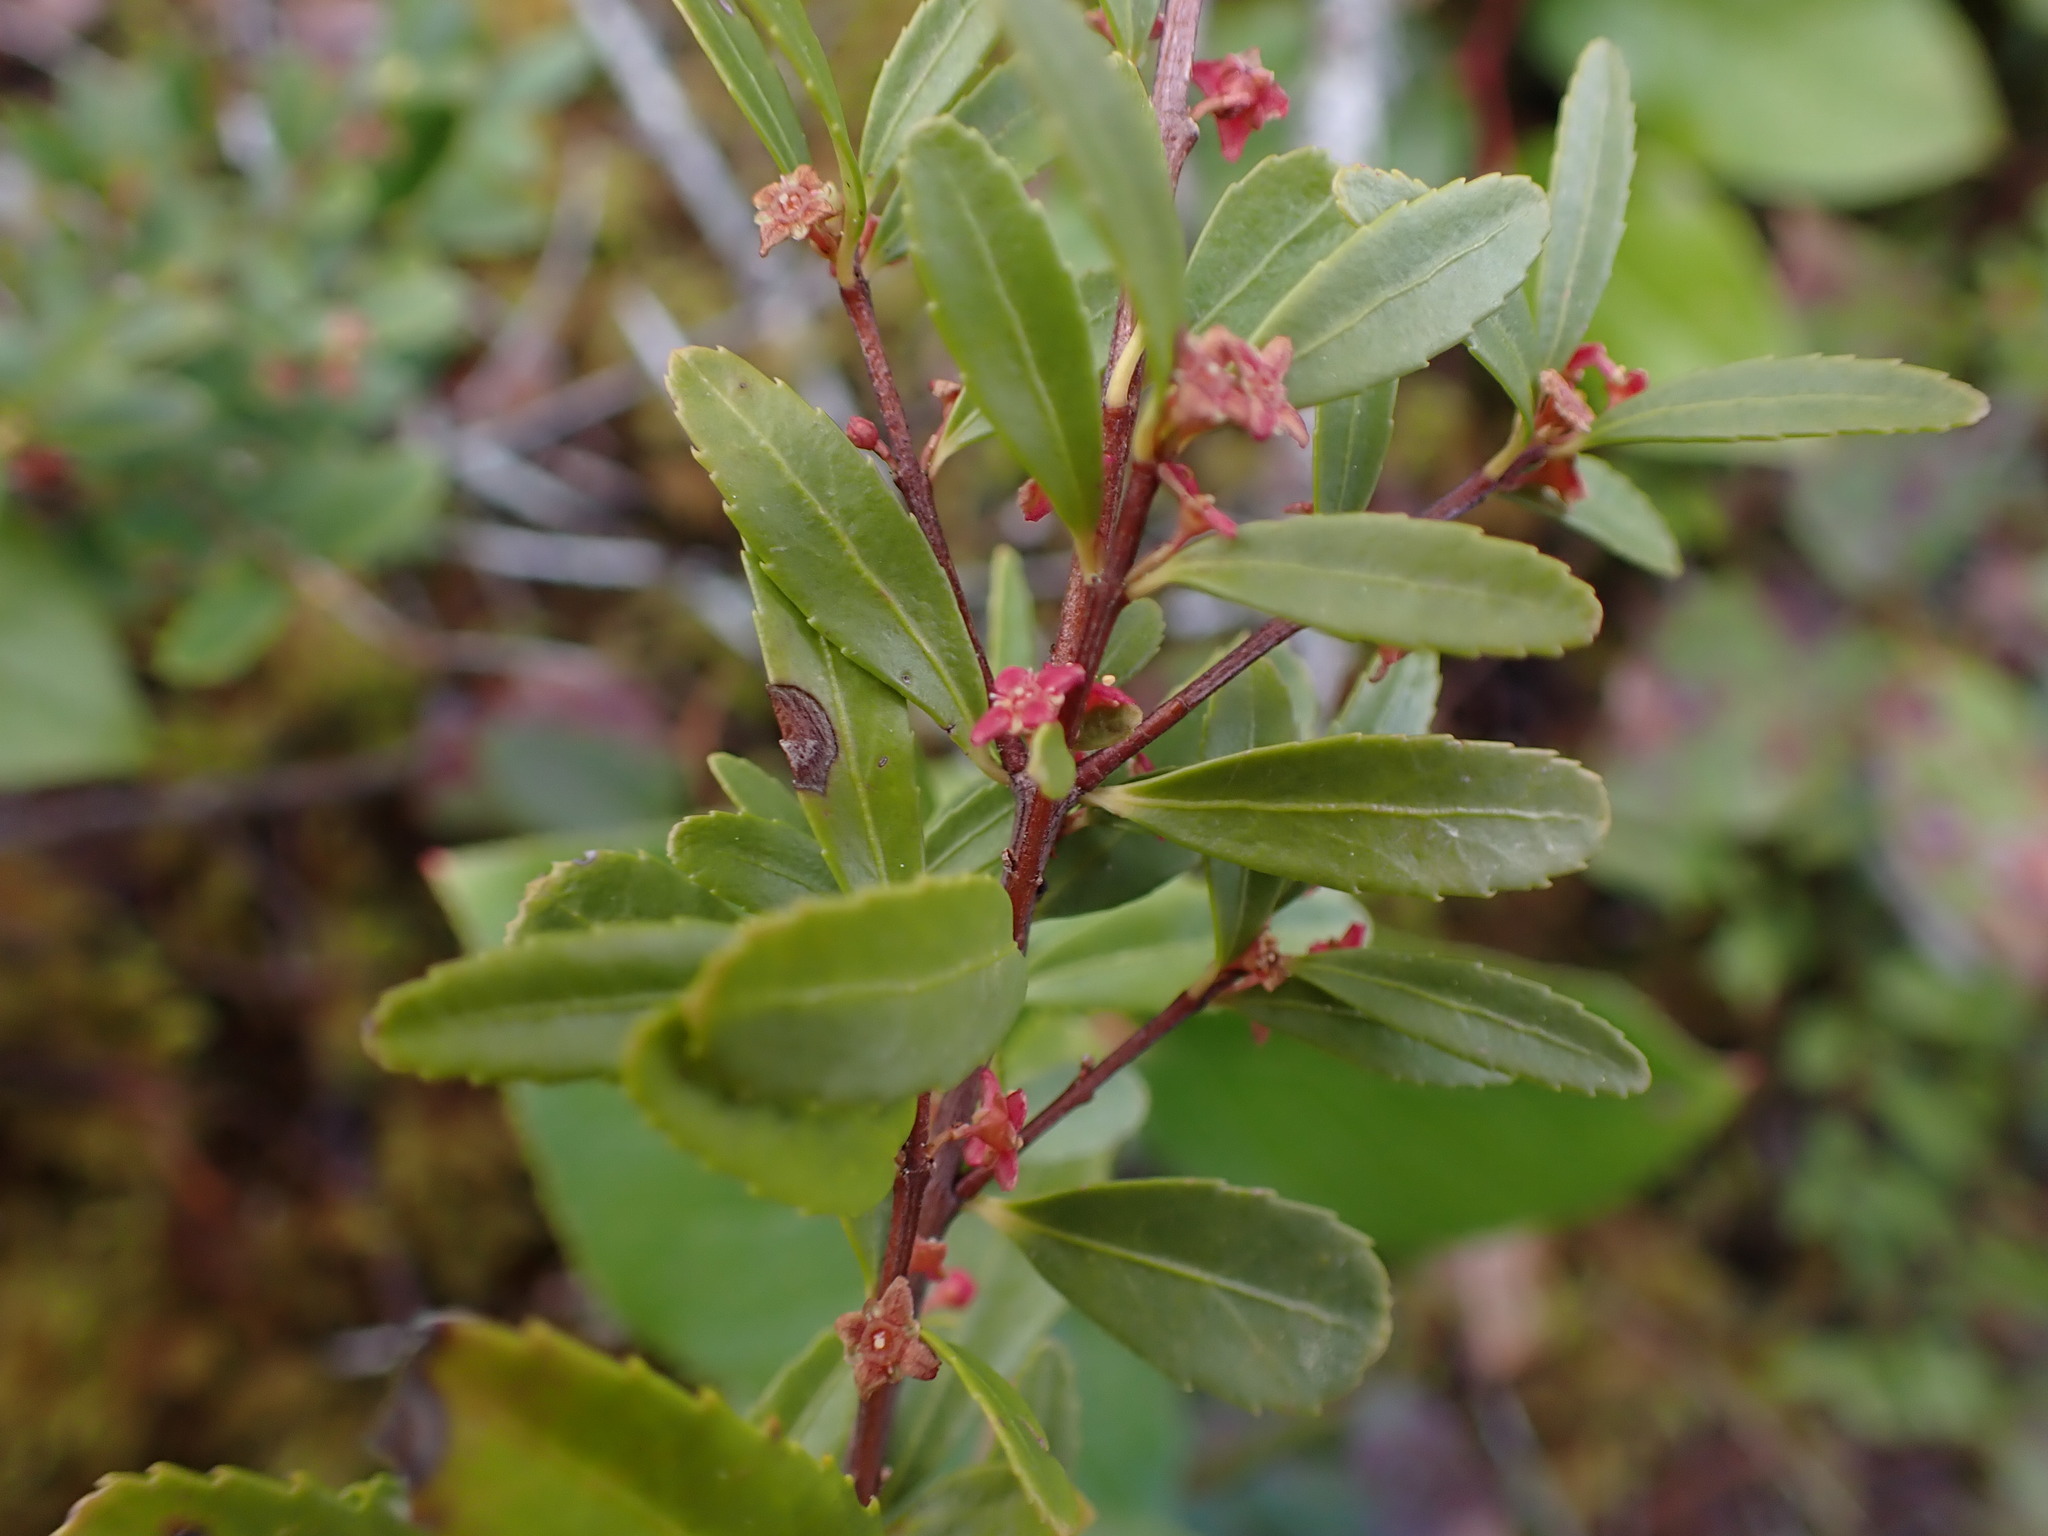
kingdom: Plantae
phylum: Tracheophyta
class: Magnoliopsida
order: Celastrales
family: Celastraceae
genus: Paxistima
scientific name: Paxistima myrsinites
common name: Mountain-lover
